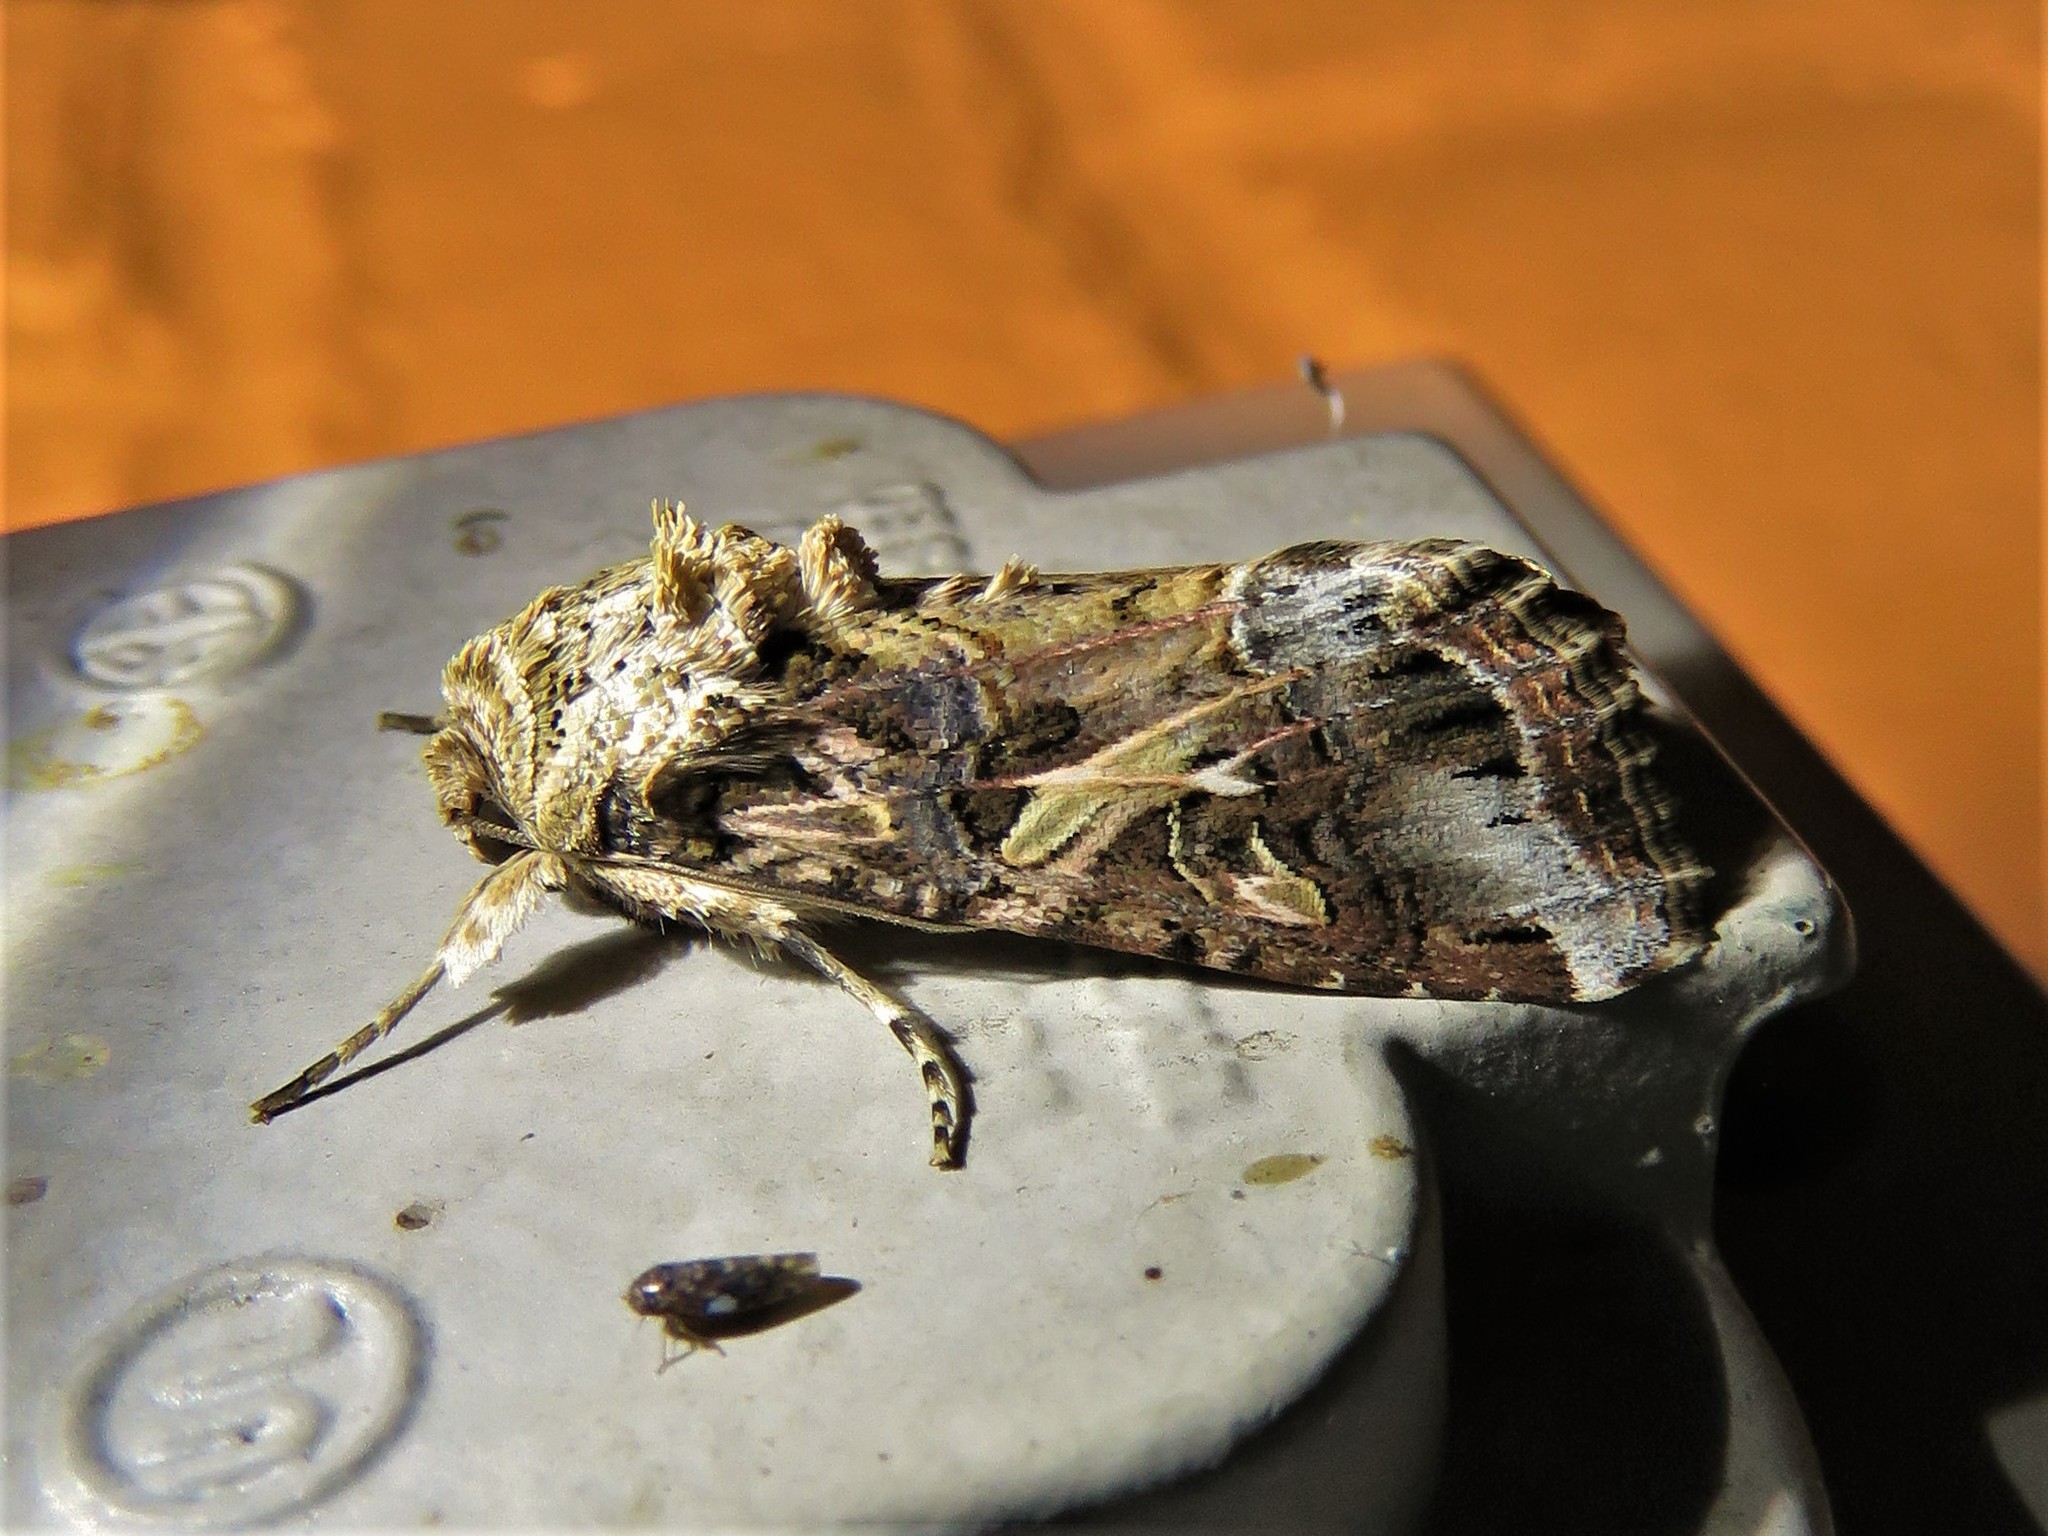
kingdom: Animalia
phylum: Arthropoda
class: Insecta
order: Lepidoptera
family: Noctuidae
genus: Spodoptera
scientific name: Spodoptera ornithogalli
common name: Yellow-striped armyworm
